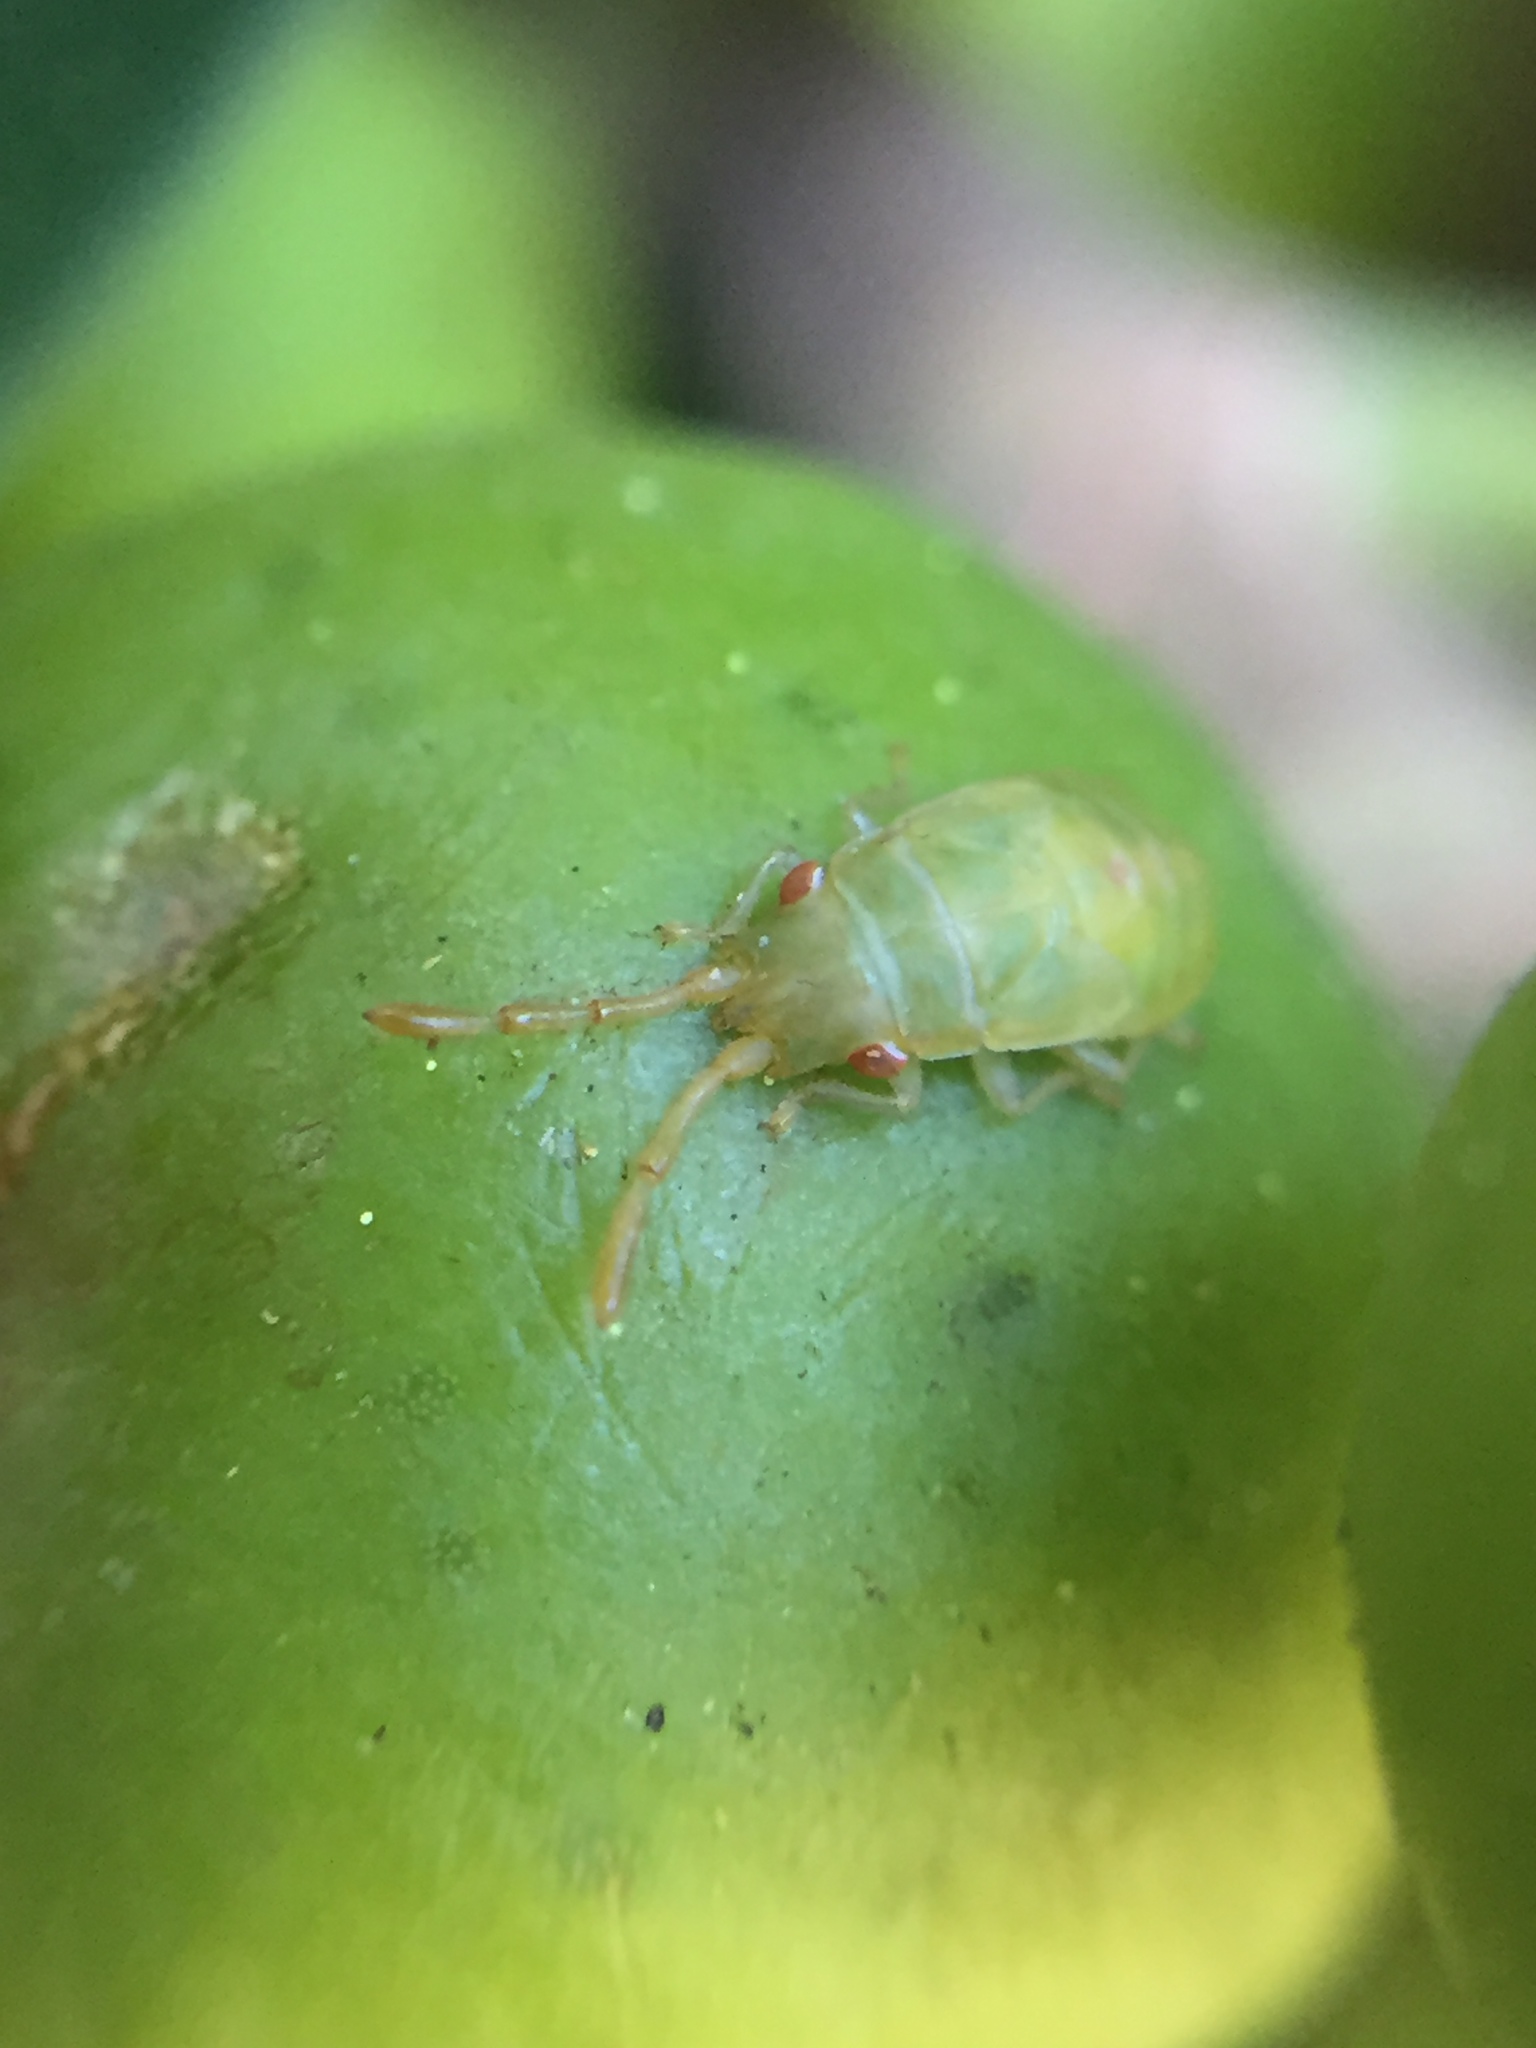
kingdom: Animalia
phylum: Arthropoda
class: Insecta
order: Hemiptera
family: Meschiidae
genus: Meschia
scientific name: Meschia barrowensis
